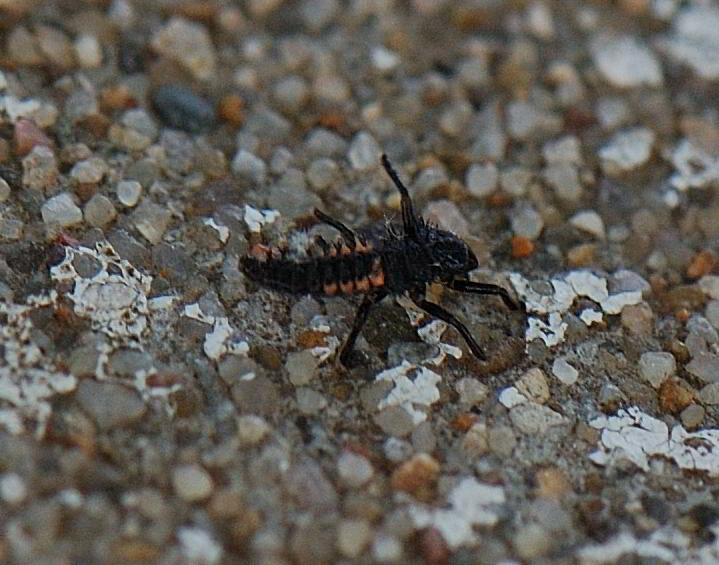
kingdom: Animalia
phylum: Arthropoda
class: Insecta
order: Coleoptera
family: Coccinellidae
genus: Harmonia
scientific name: Harmonia axyridis
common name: Harlequin ladybird
